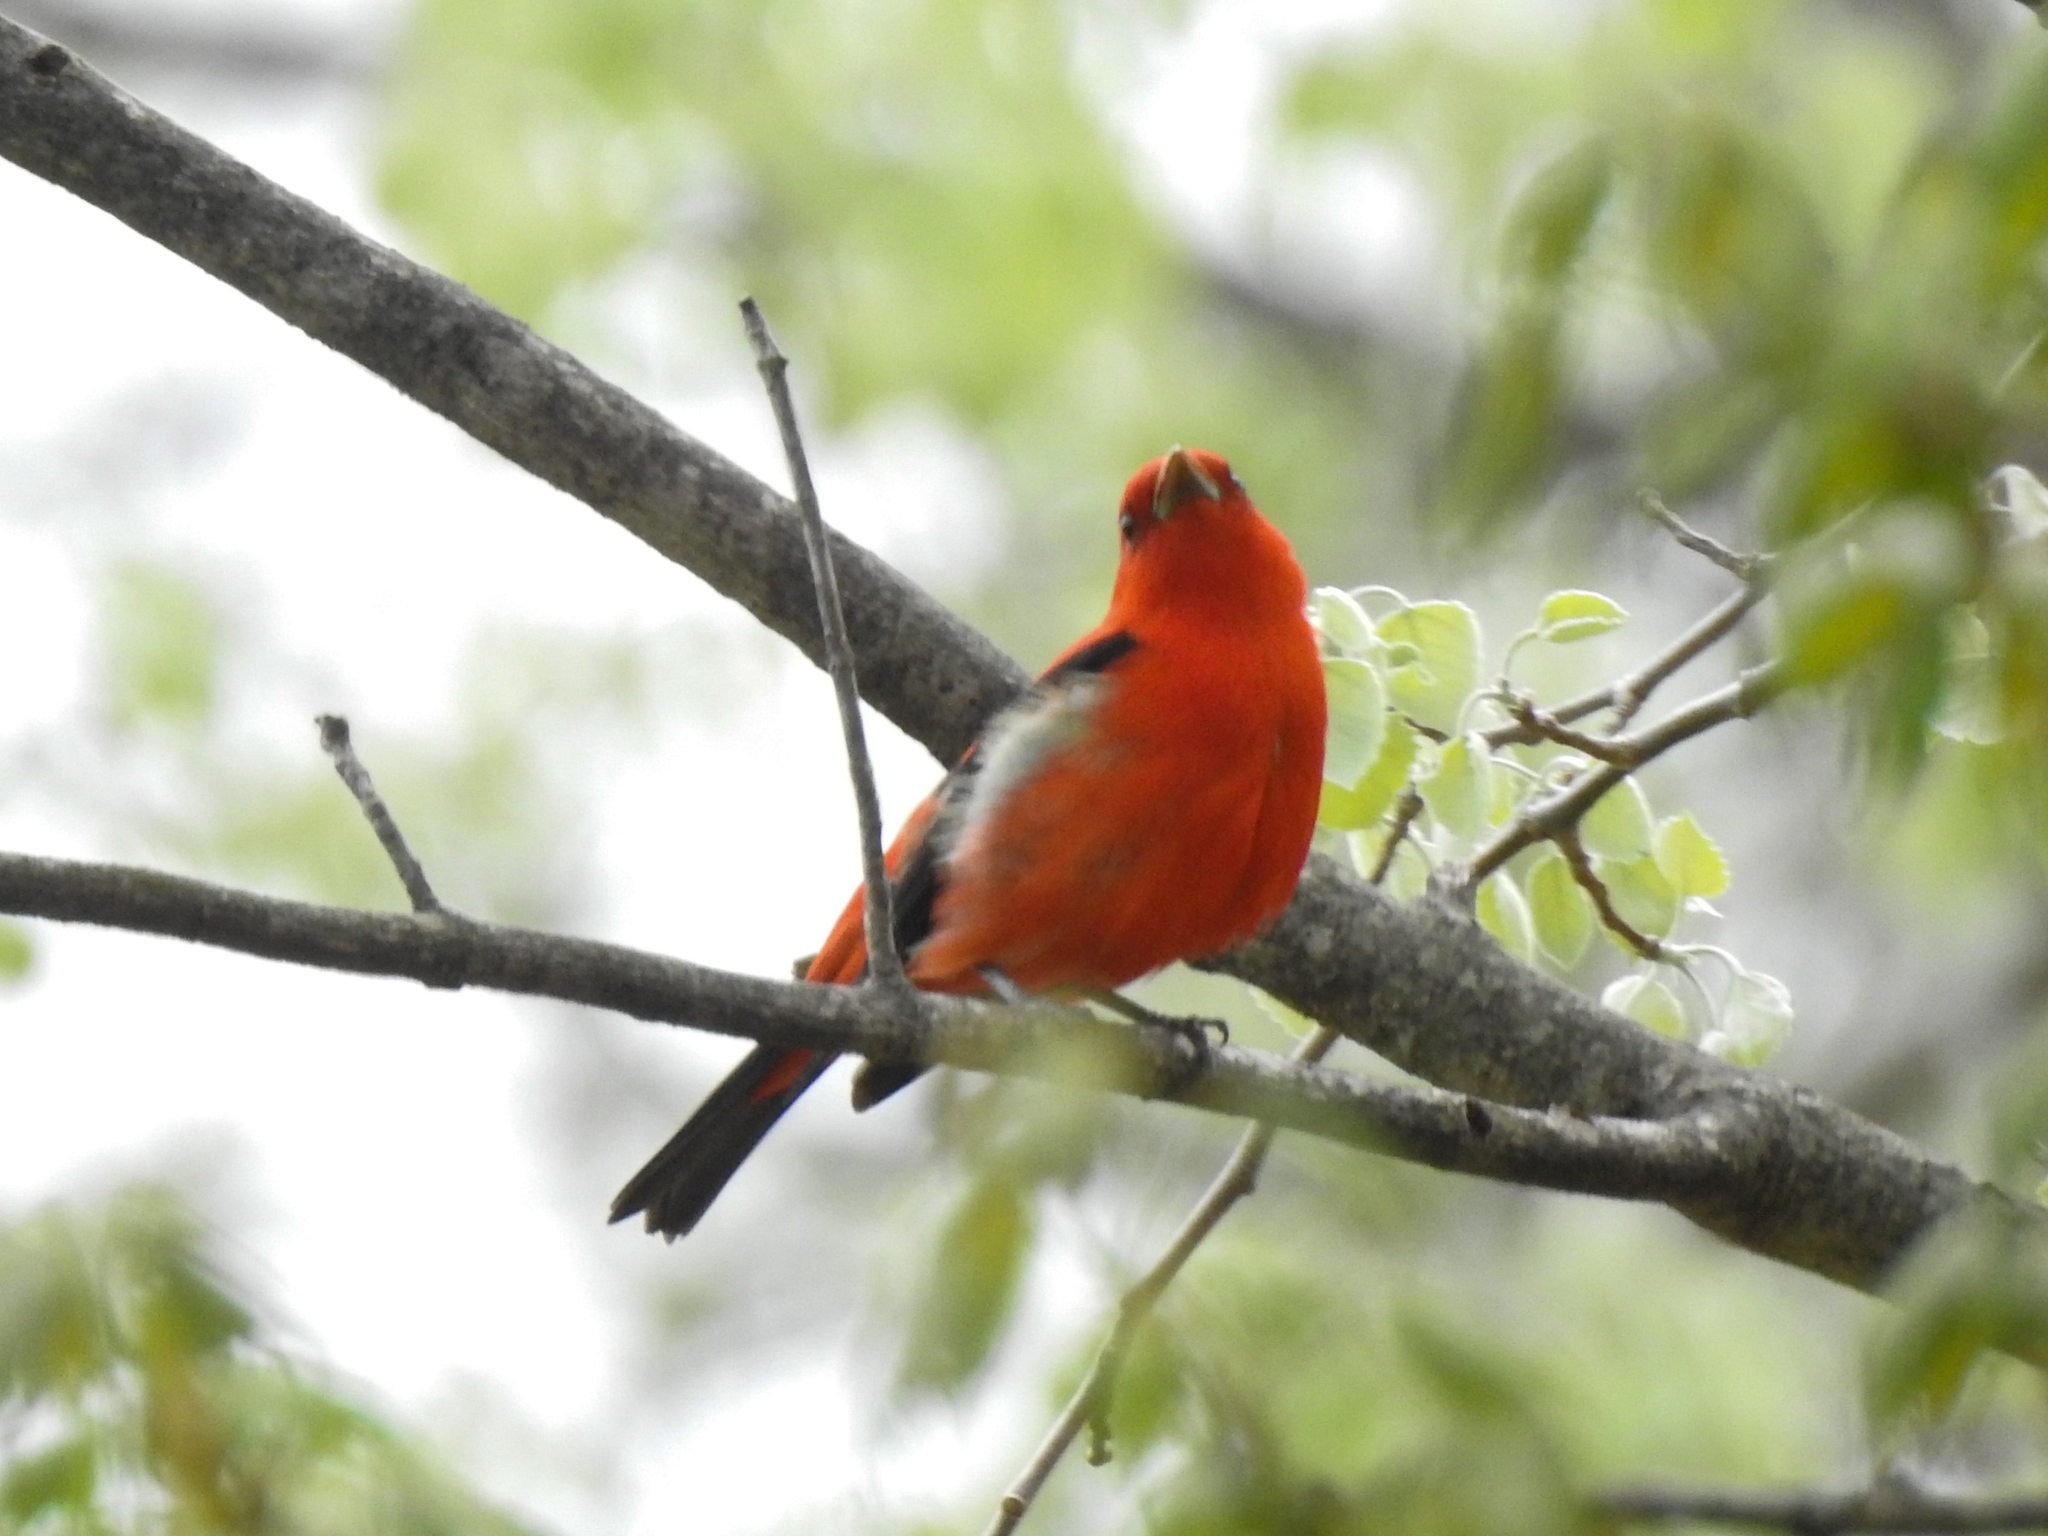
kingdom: Animalia
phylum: Chordata
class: Aves
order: Passeriformes
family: Cardinalidae
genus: Piranga
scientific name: Piranga olivacea
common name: Scarlet tanager
